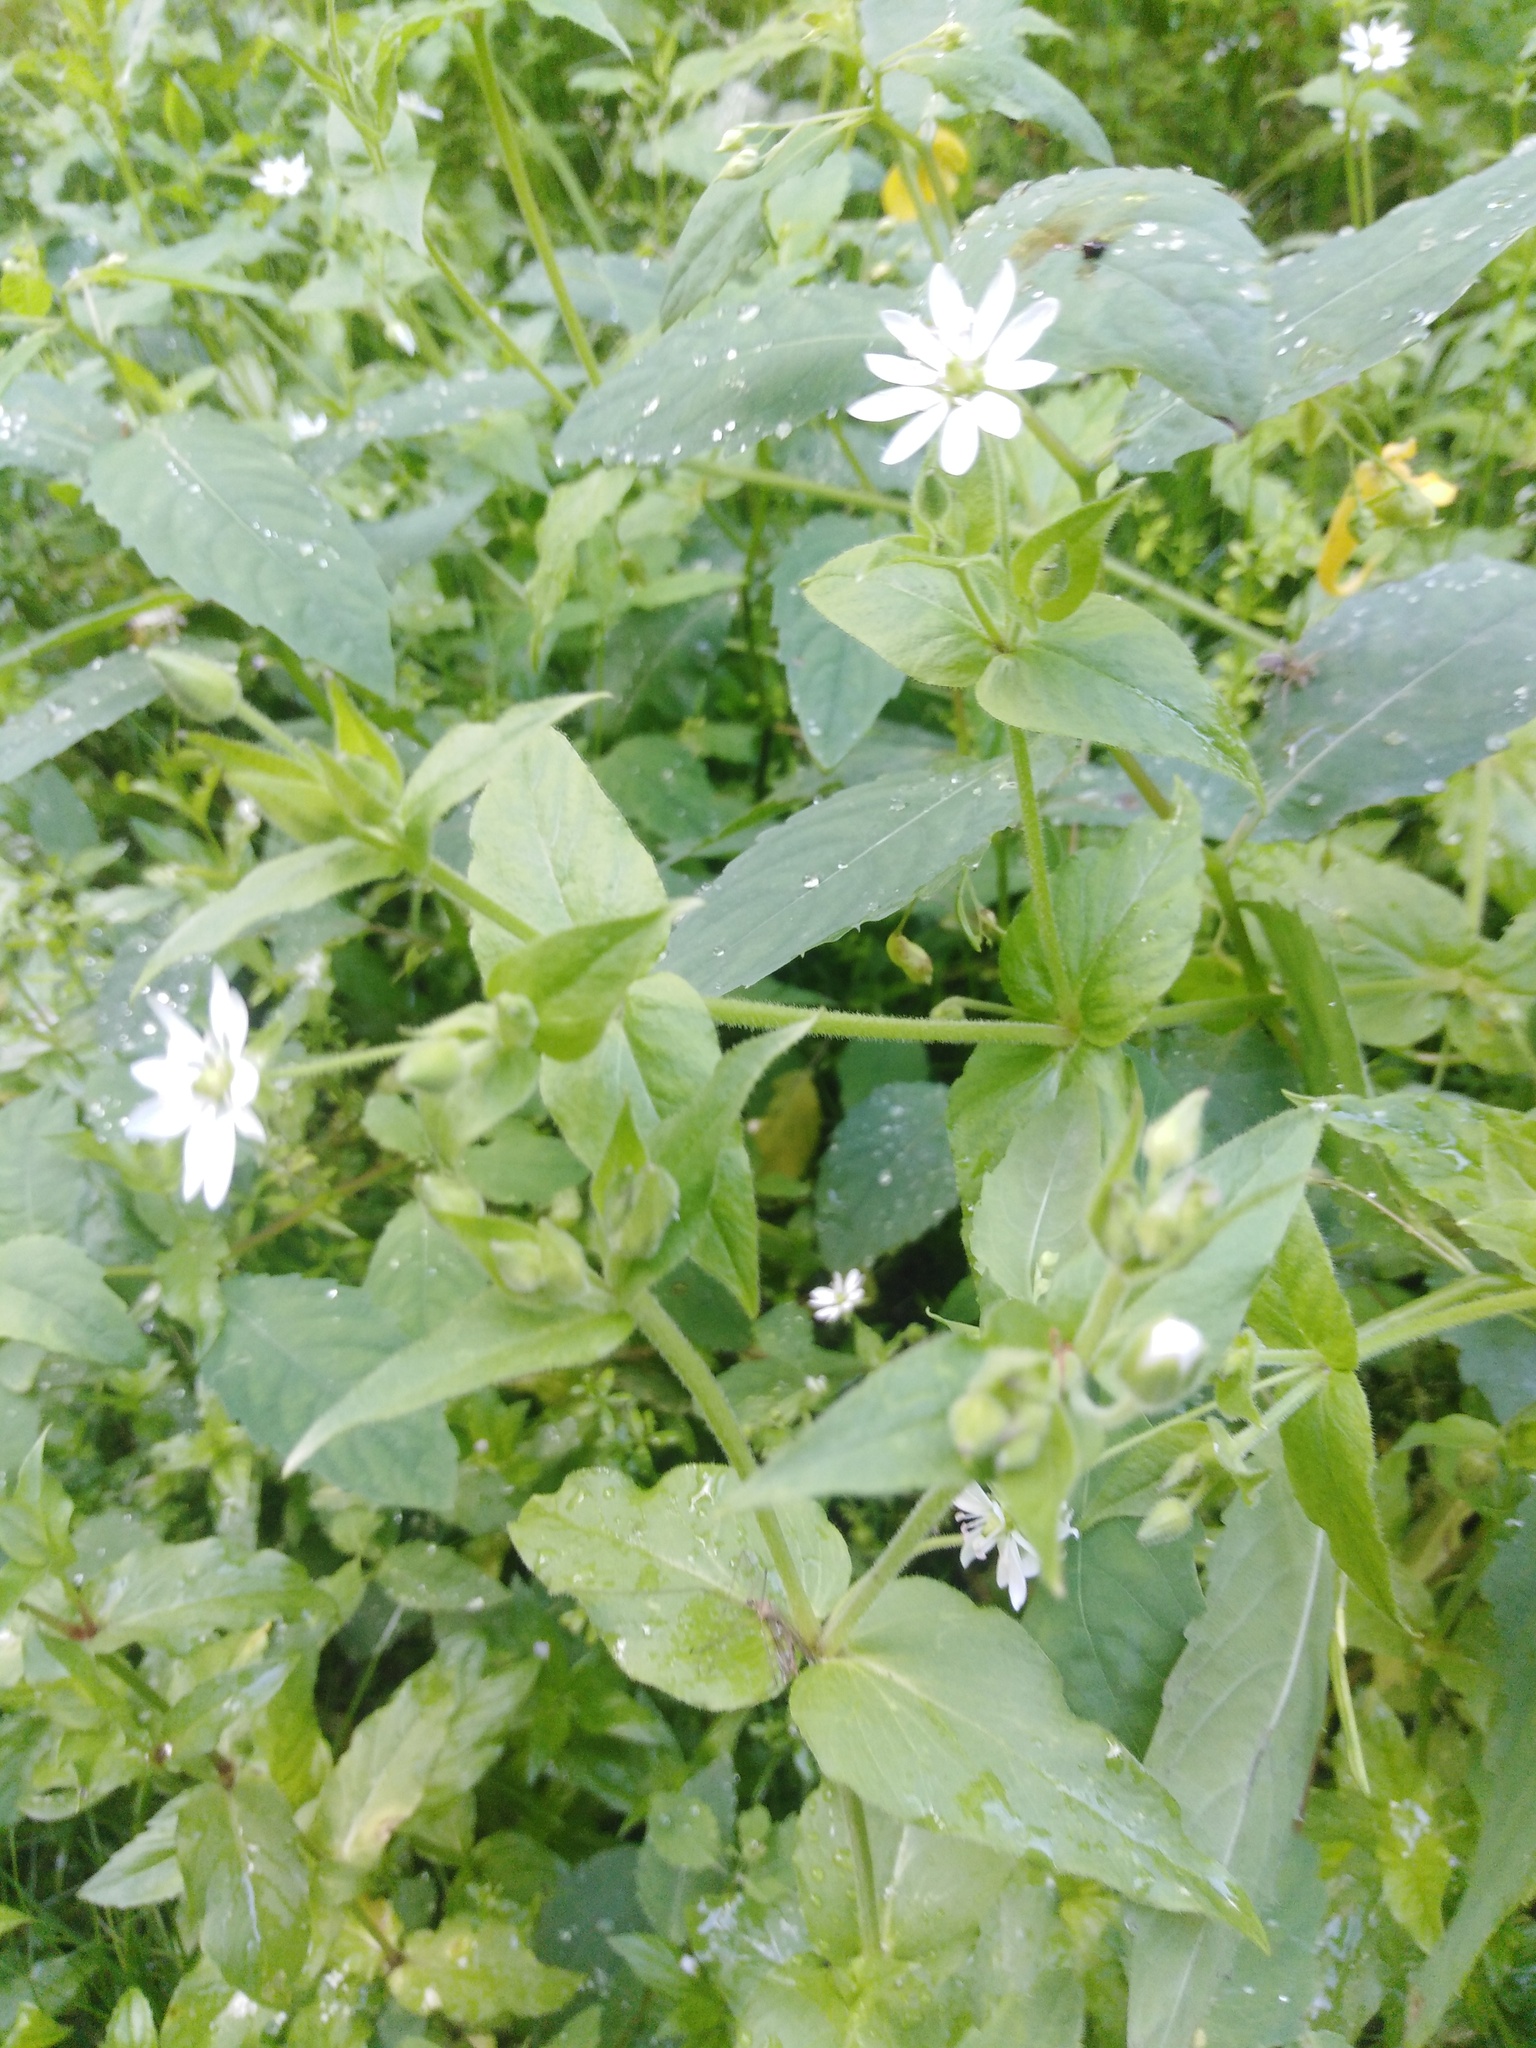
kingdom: Plantae
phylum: Tracheophyta
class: Magnoliopsida
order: Caryophyllales
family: Caryophyllaceae
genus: Stellaria
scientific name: Stellaria aquatica
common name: Water chickweed
